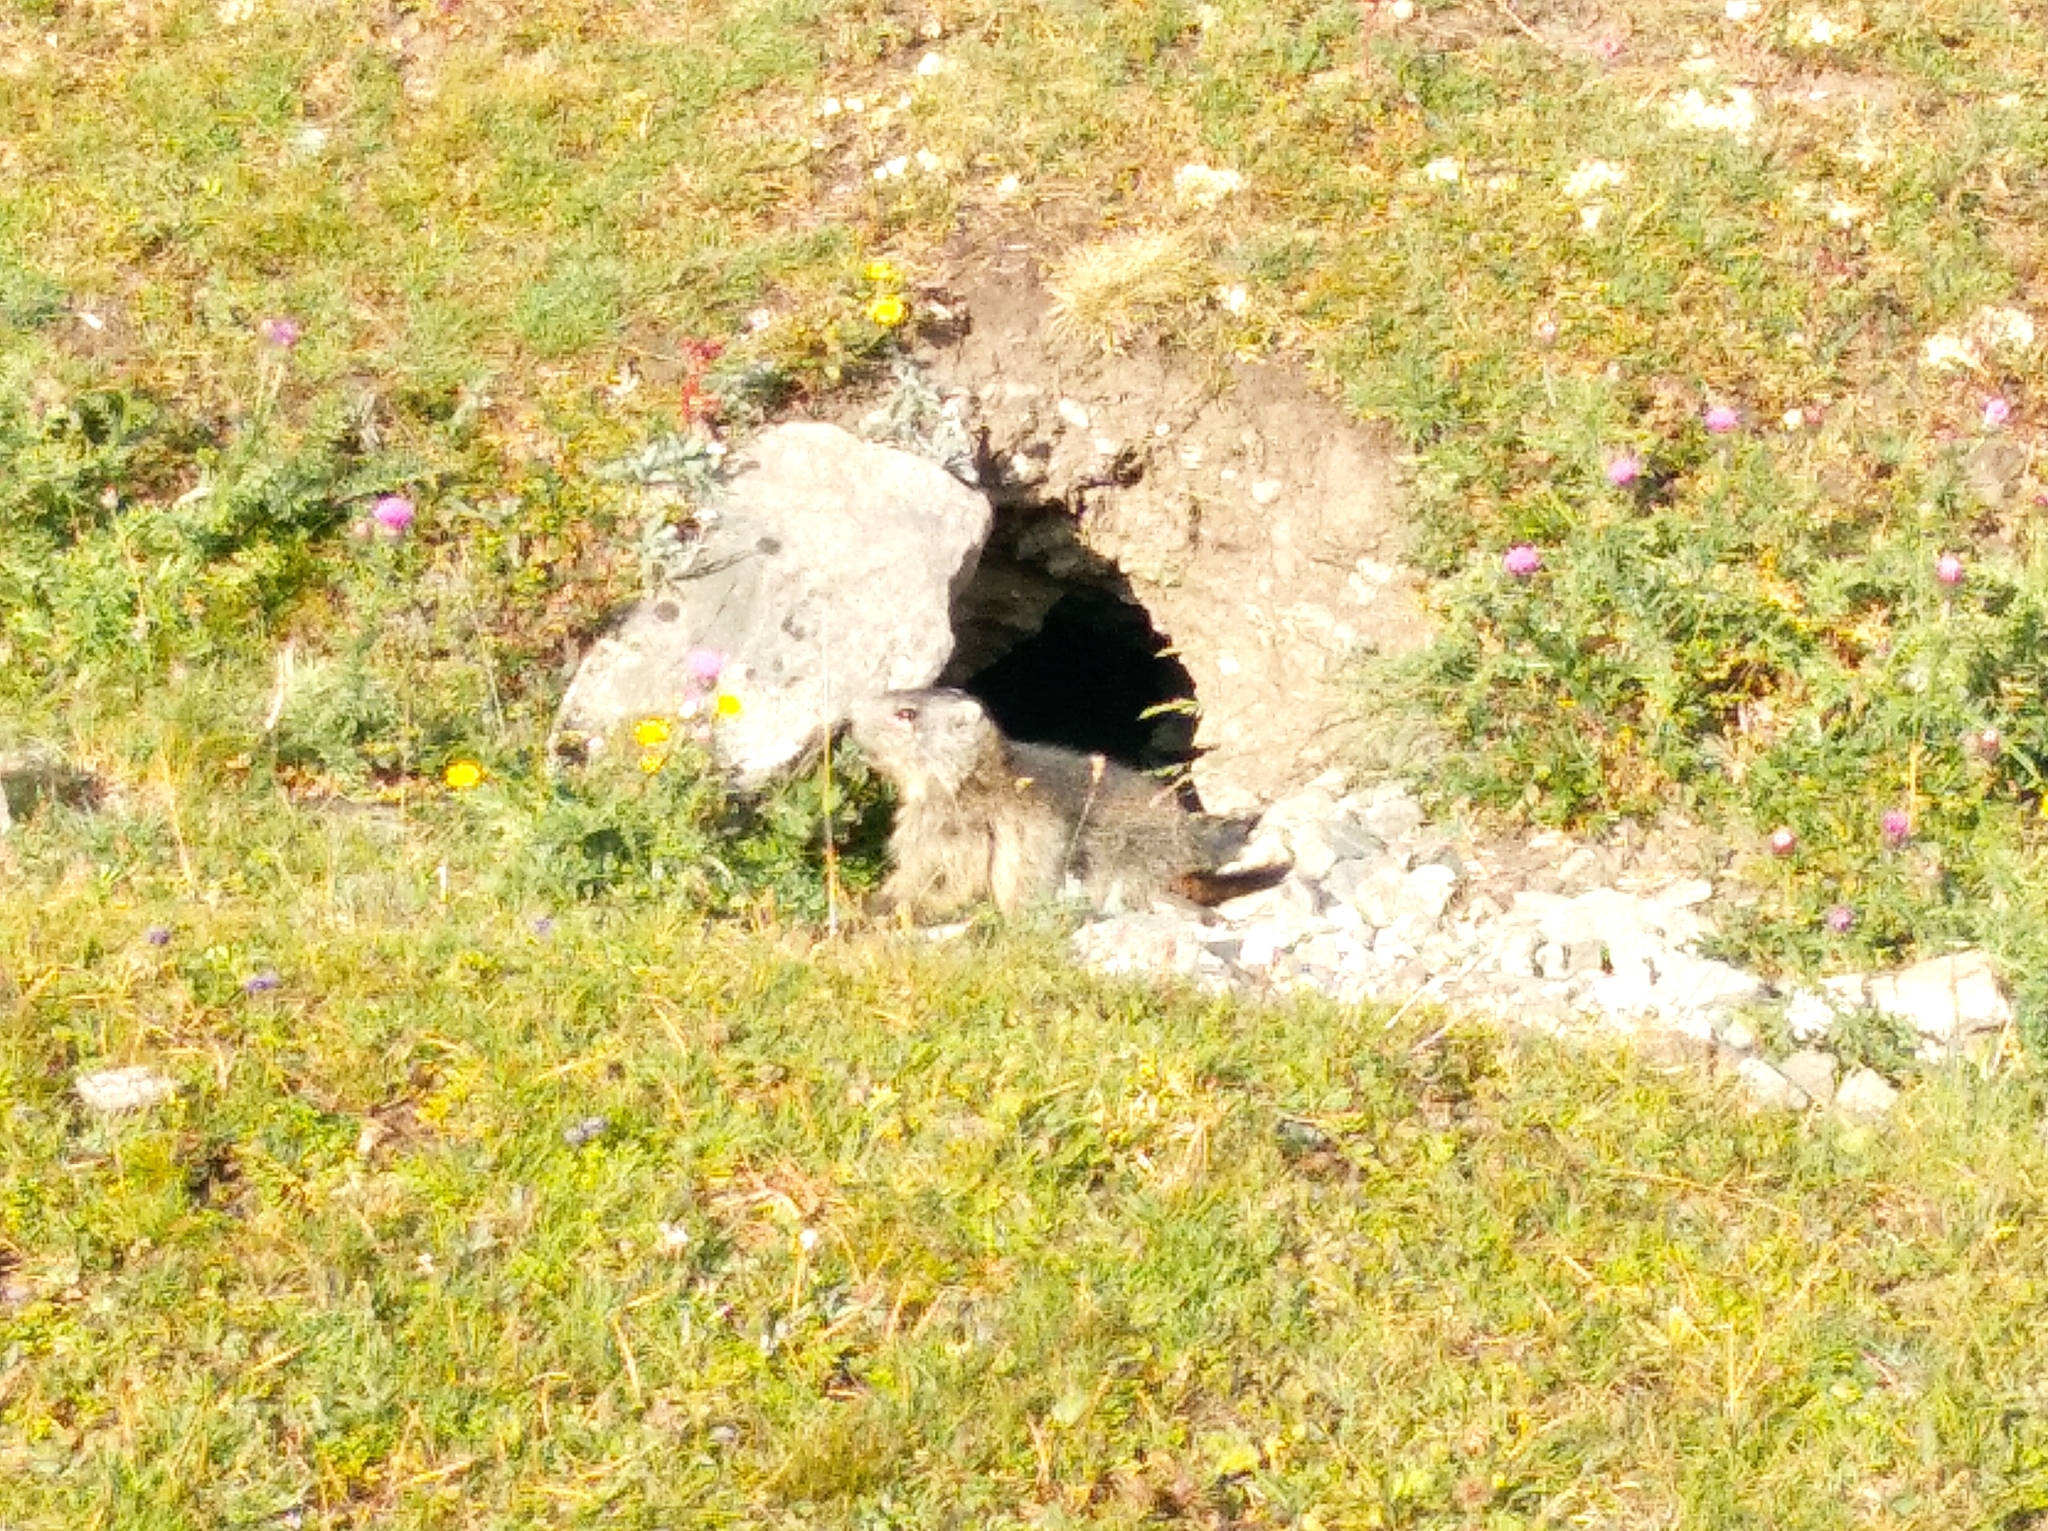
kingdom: Animalia
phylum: Chordata
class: Mammalia
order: Rodentia
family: Sciuridae
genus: Marmota
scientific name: Marmota marmota
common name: Alpine marmot
